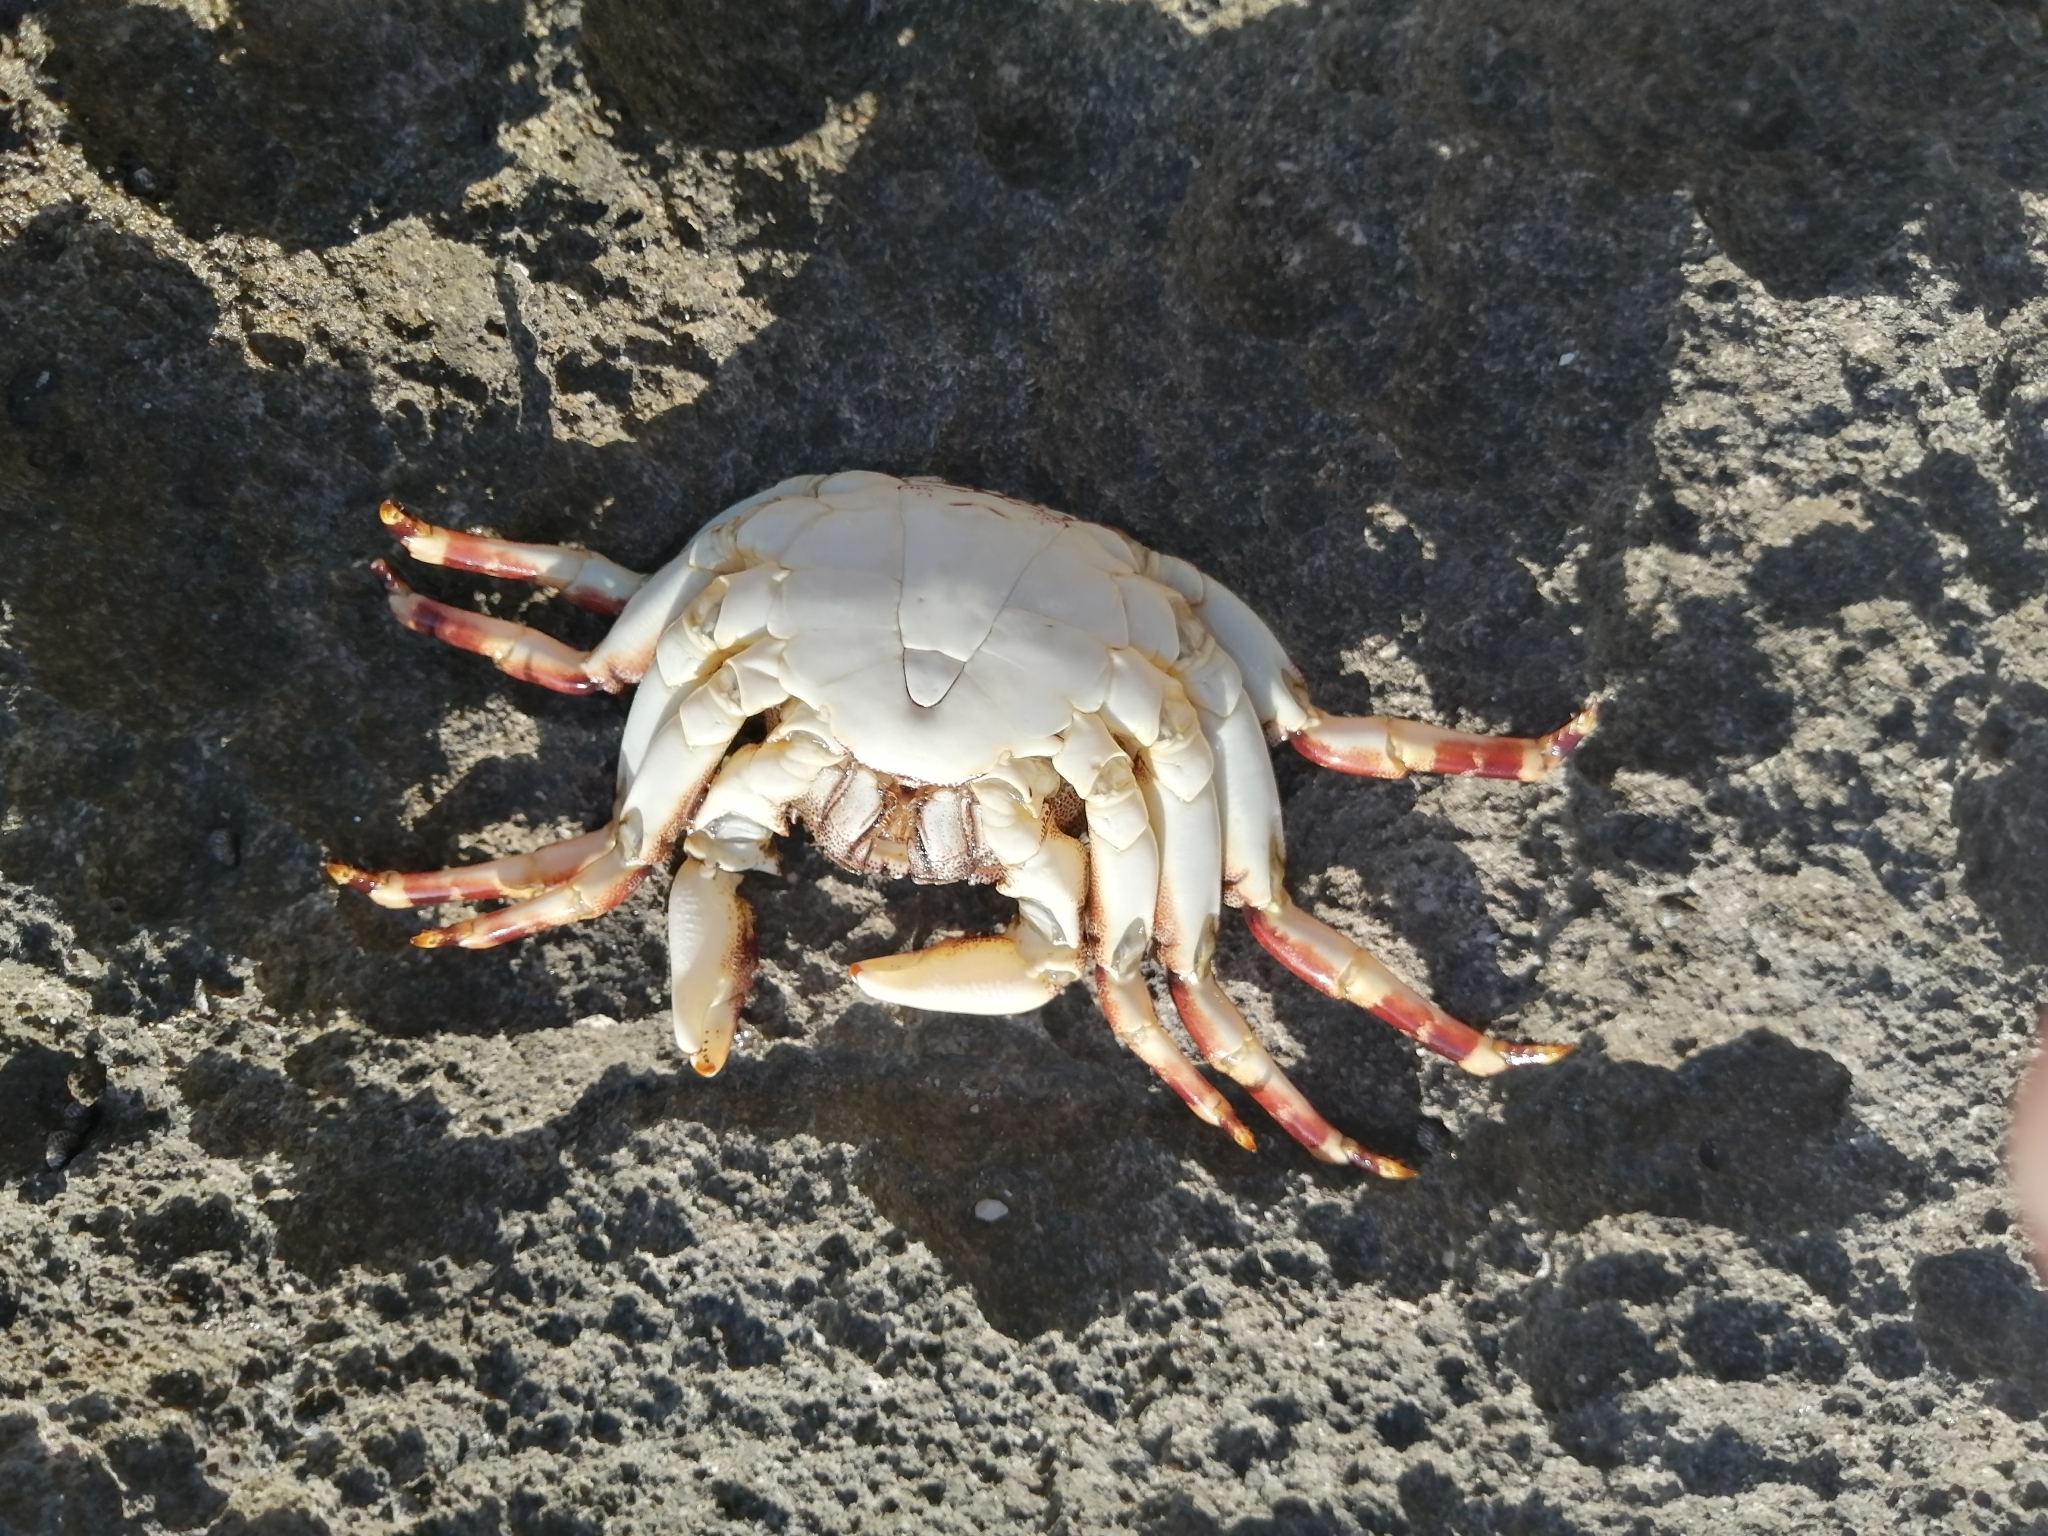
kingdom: Animalia
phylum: Arthropoda
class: Malacostraca
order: Decapoda
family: Grapsidae
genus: Grapsus
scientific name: Grapsus grapsus
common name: Sally lightfoot
